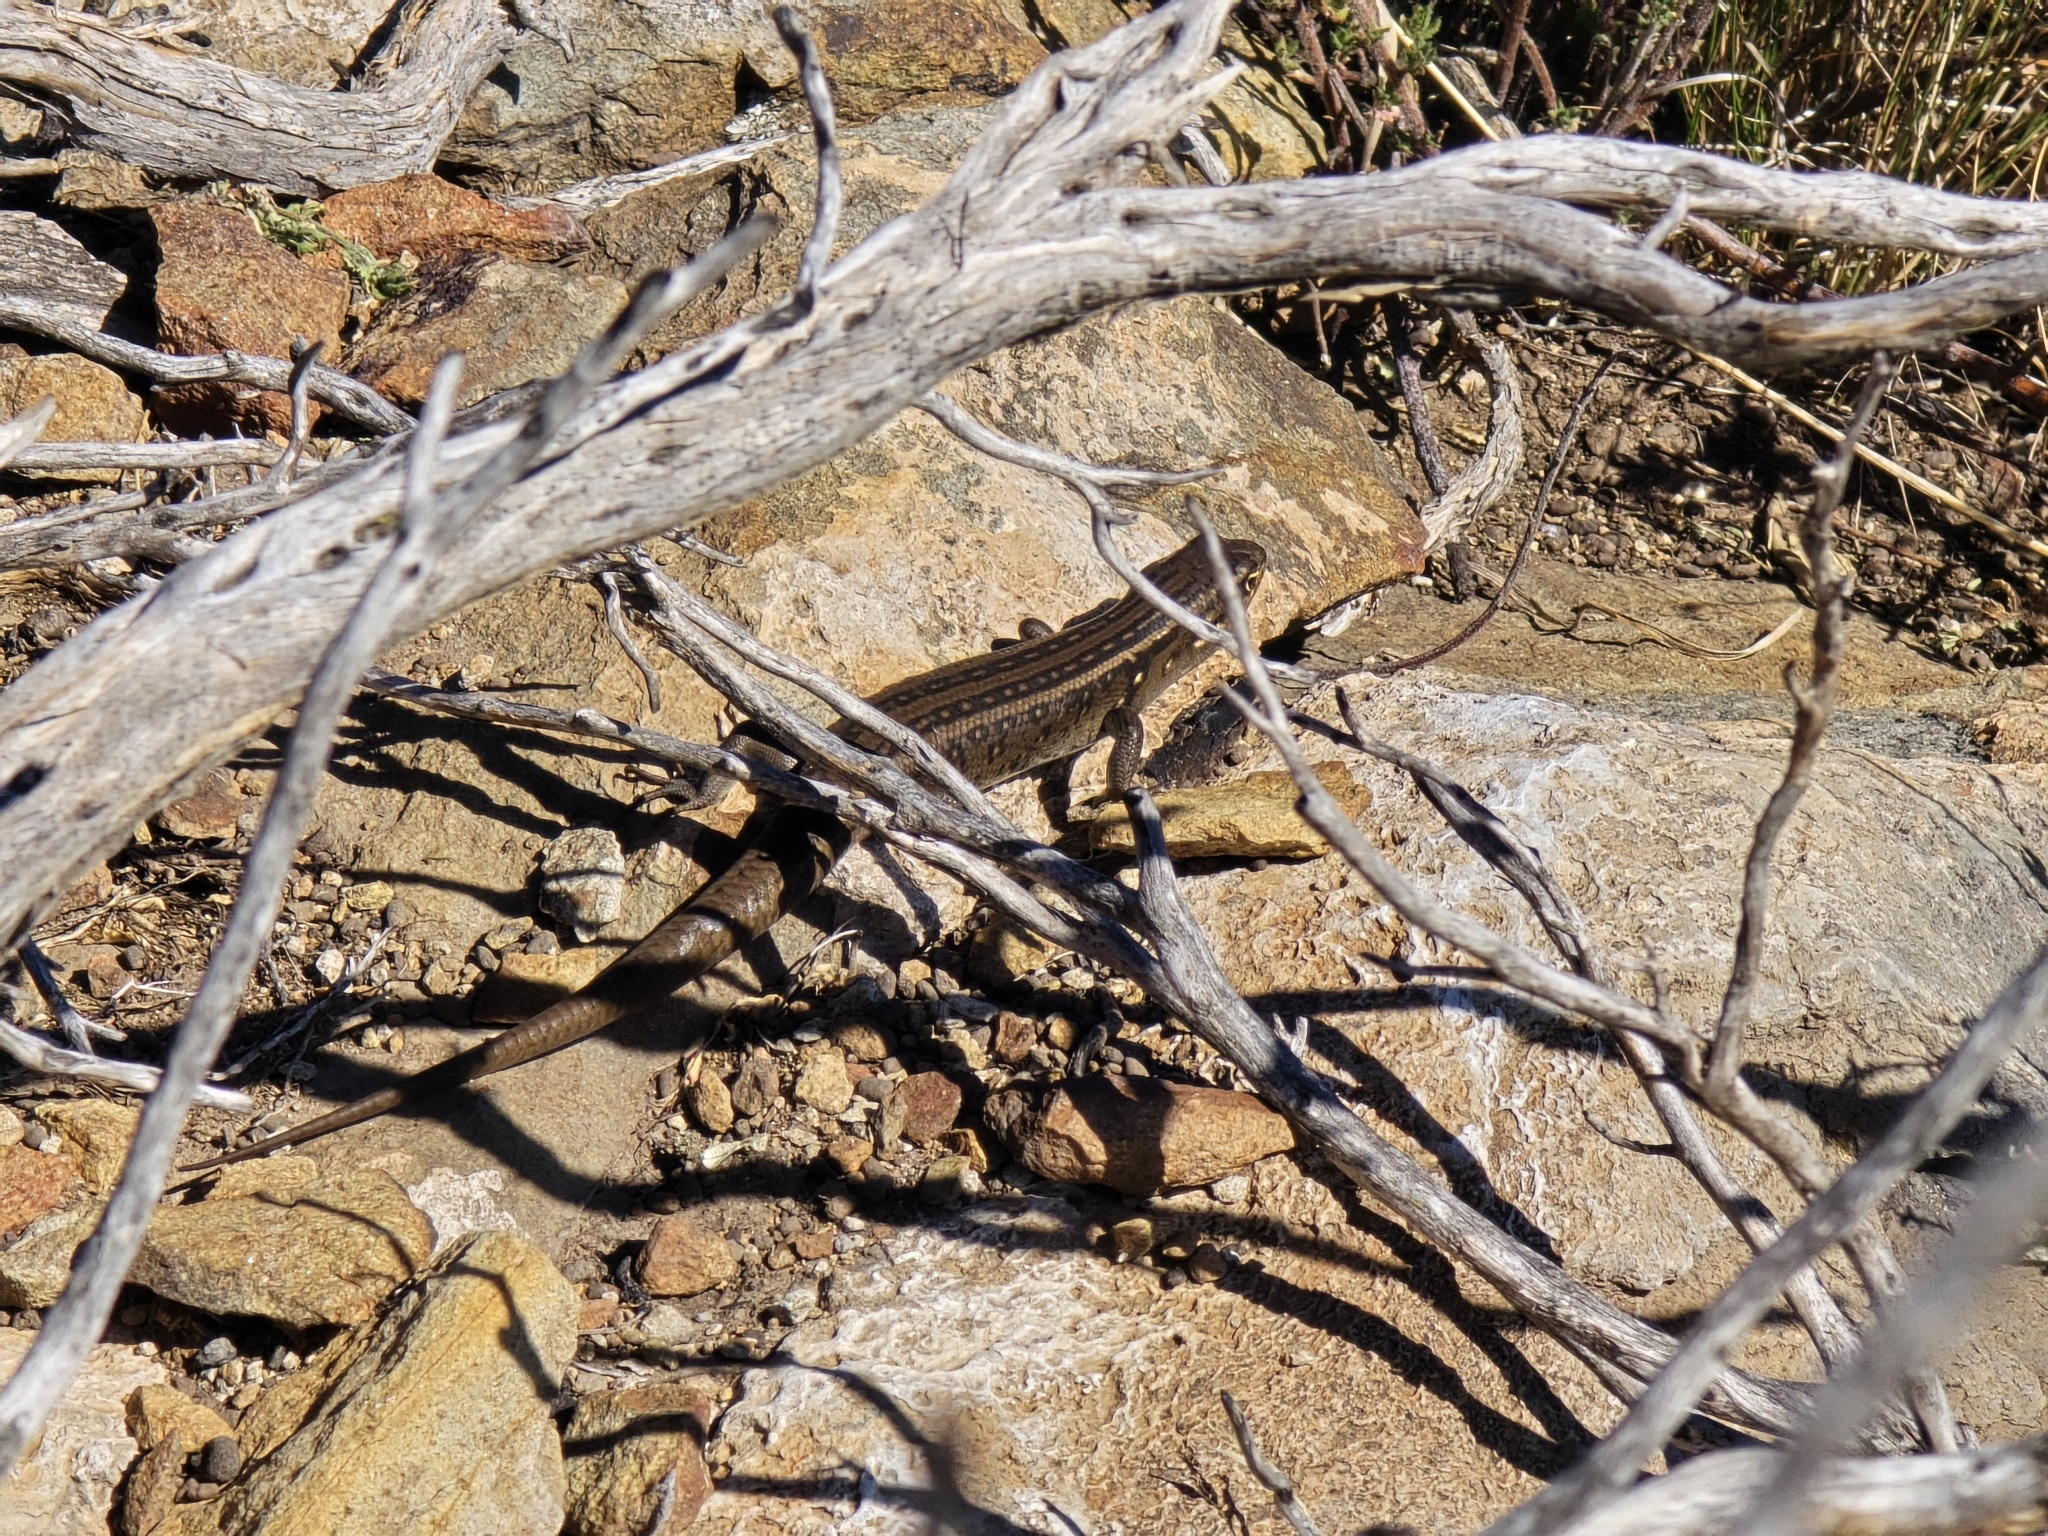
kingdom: Animalia
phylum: Chordata
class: Squamata
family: Scincidae
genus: Liopholis
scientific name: Liopholis whitii
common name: White's rock-skink
